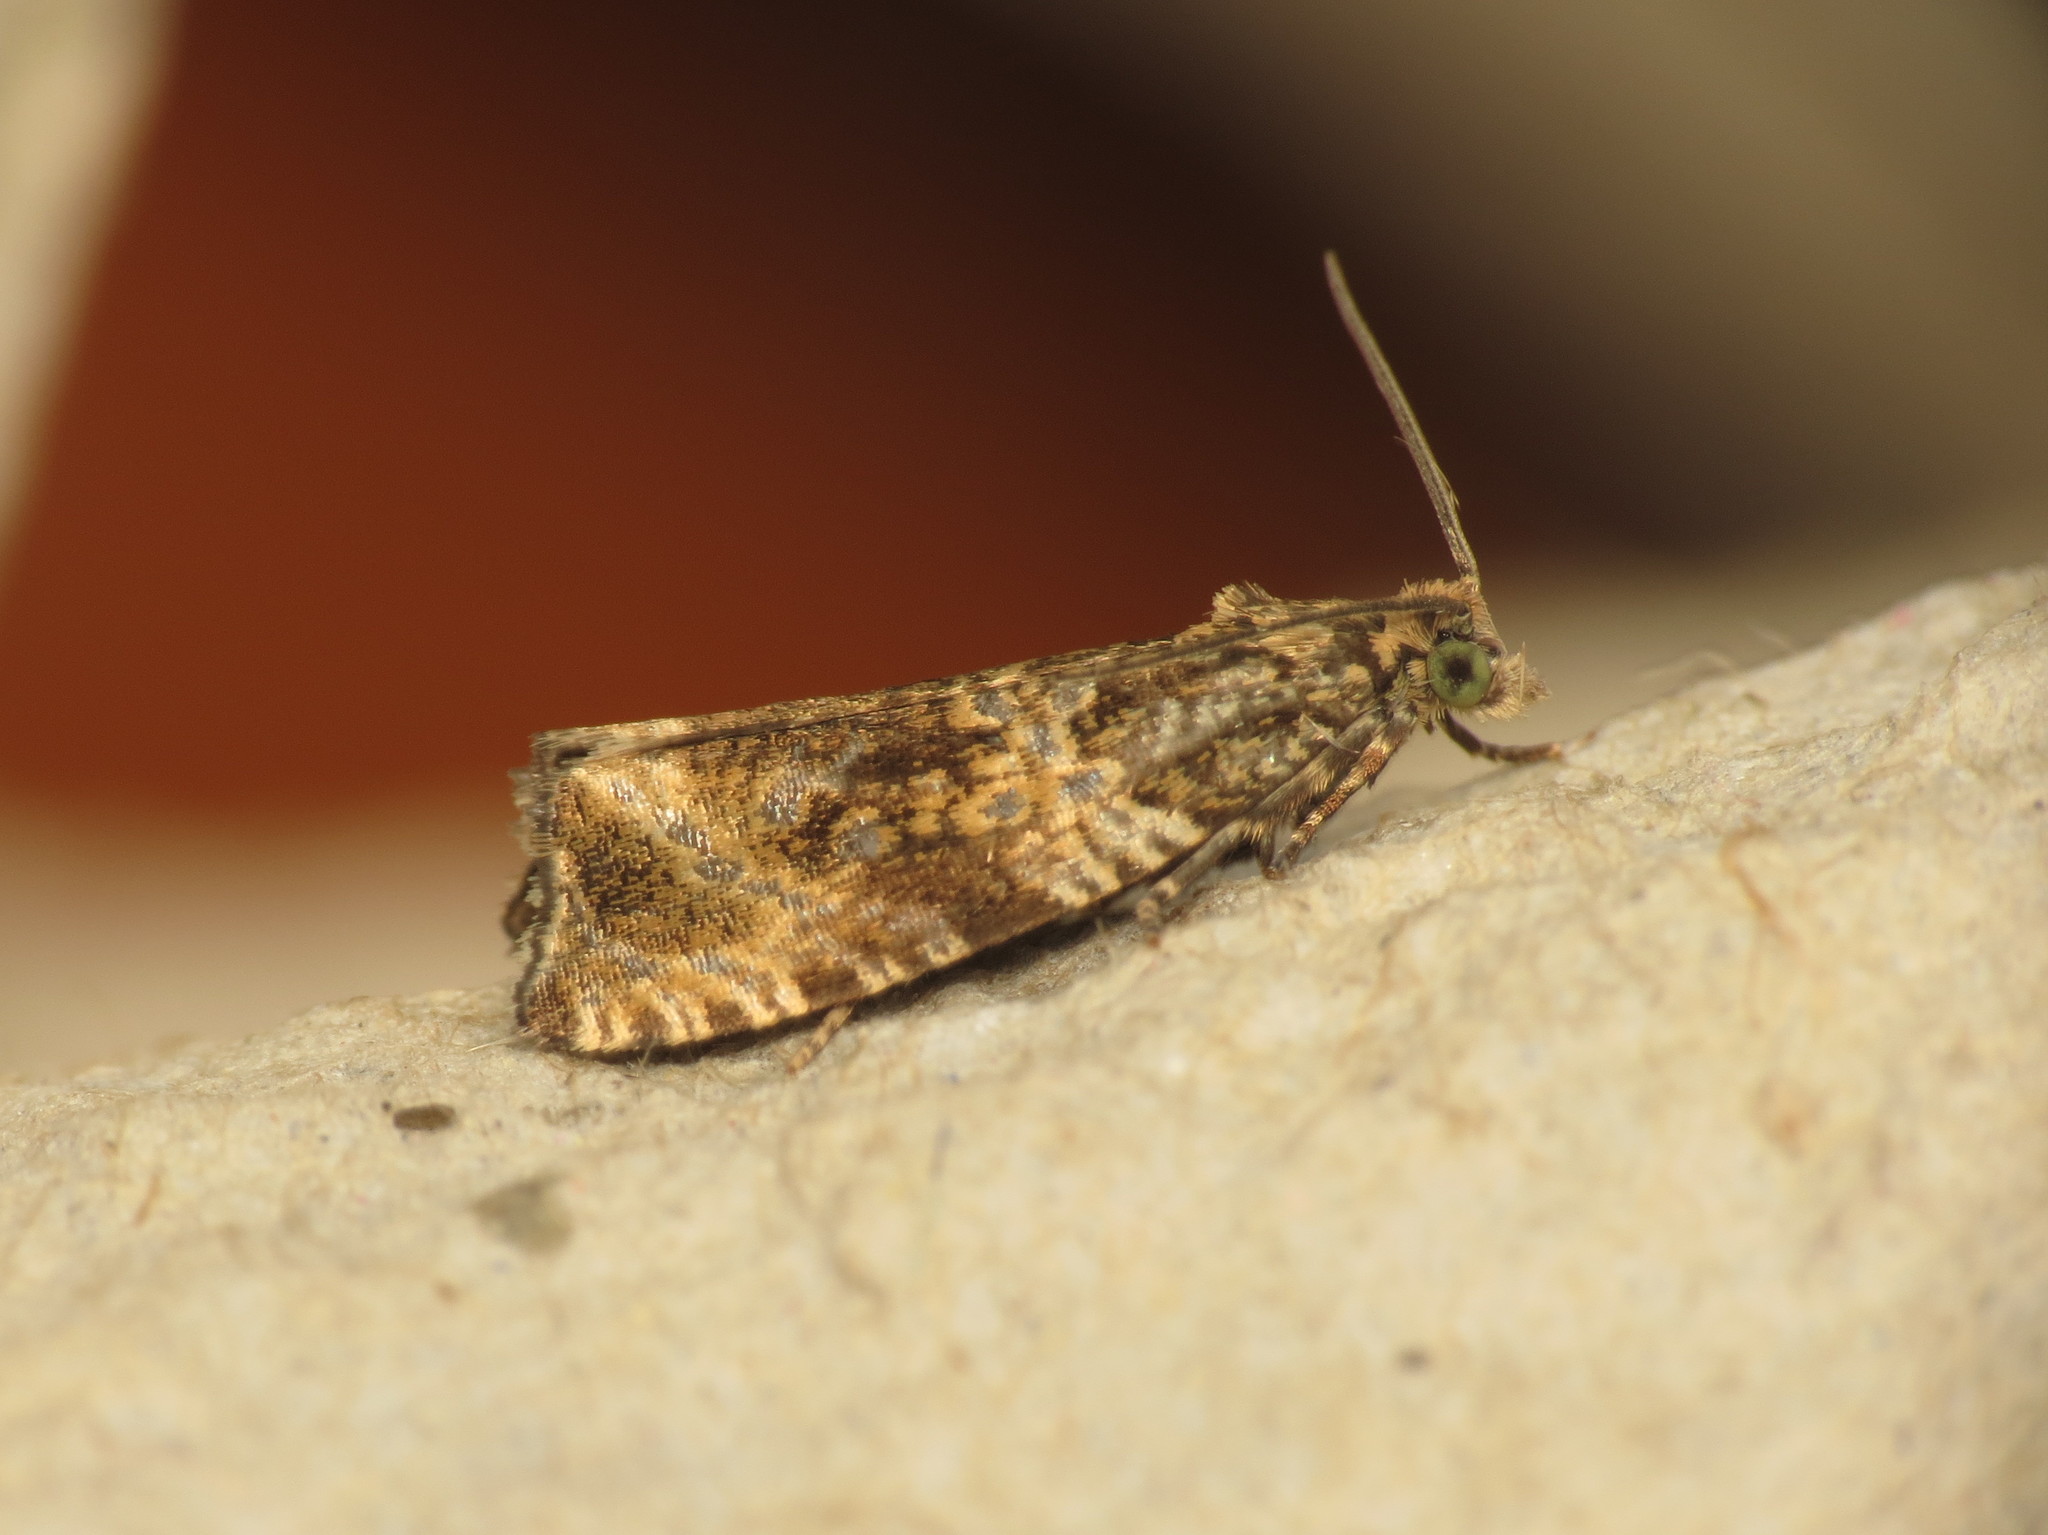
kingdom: Animalia
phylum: Arthropoda
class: Insecta
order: Lepidoptera
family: Tortricidae
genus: Syricoris
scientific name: Syricoris lacunana
